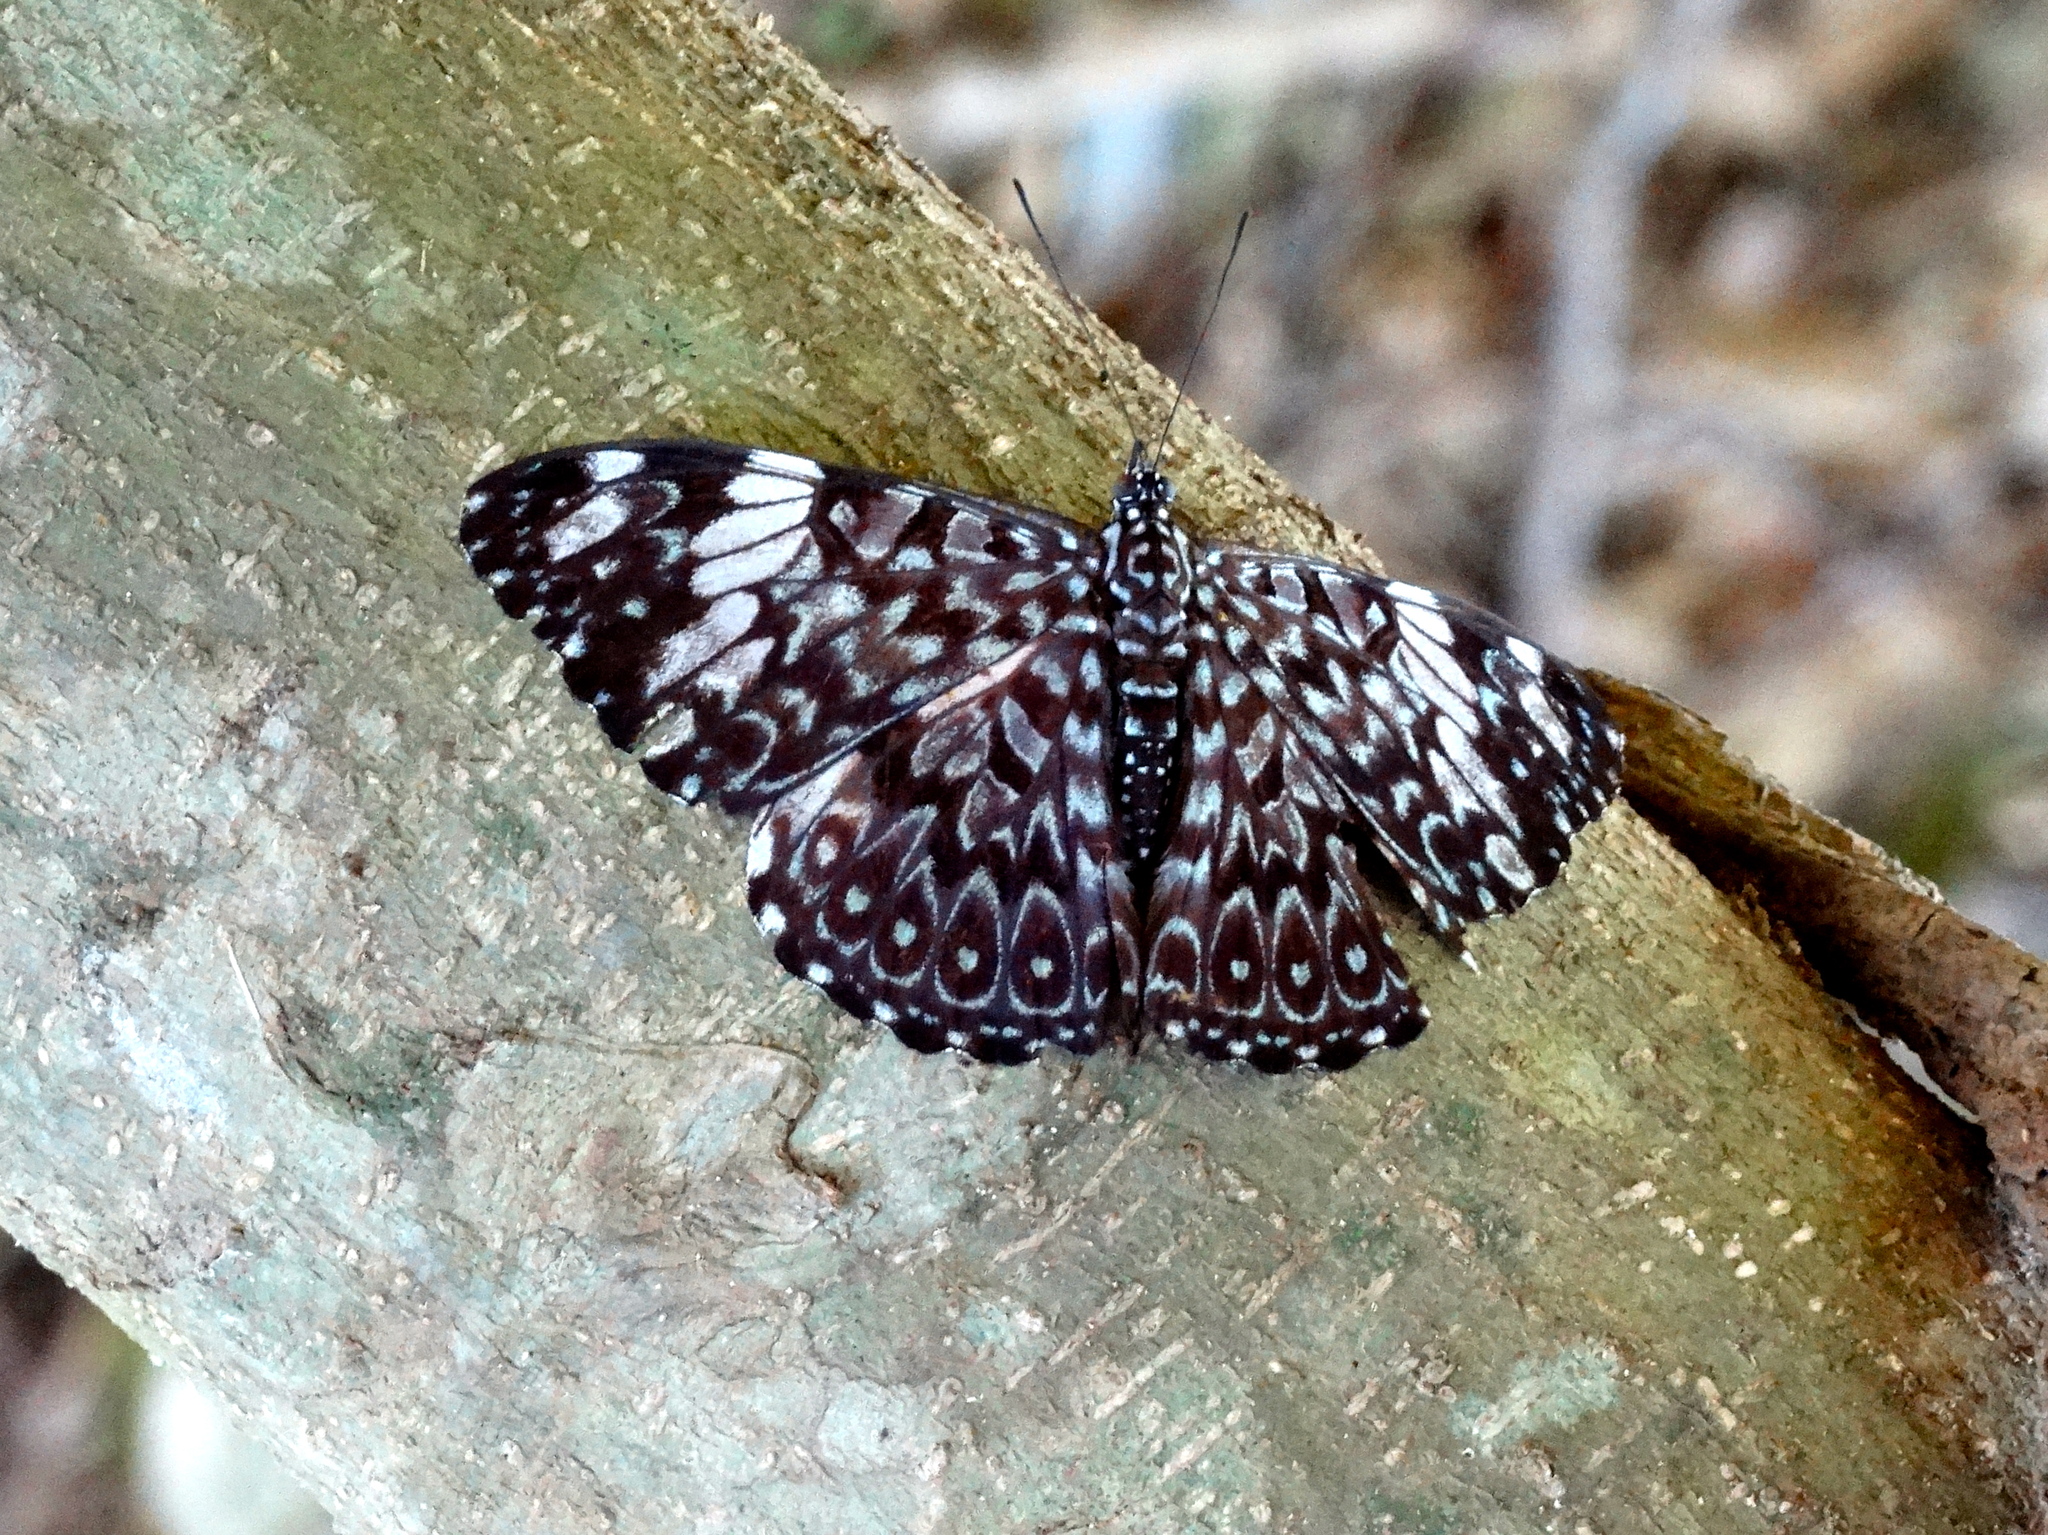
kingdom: Animalia
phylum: Arthropoda
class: Insecta
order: Lepidoptera
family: Nymphalidae
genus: Hamadryas
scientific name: Hamadryas amphinome
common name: Red cracker
